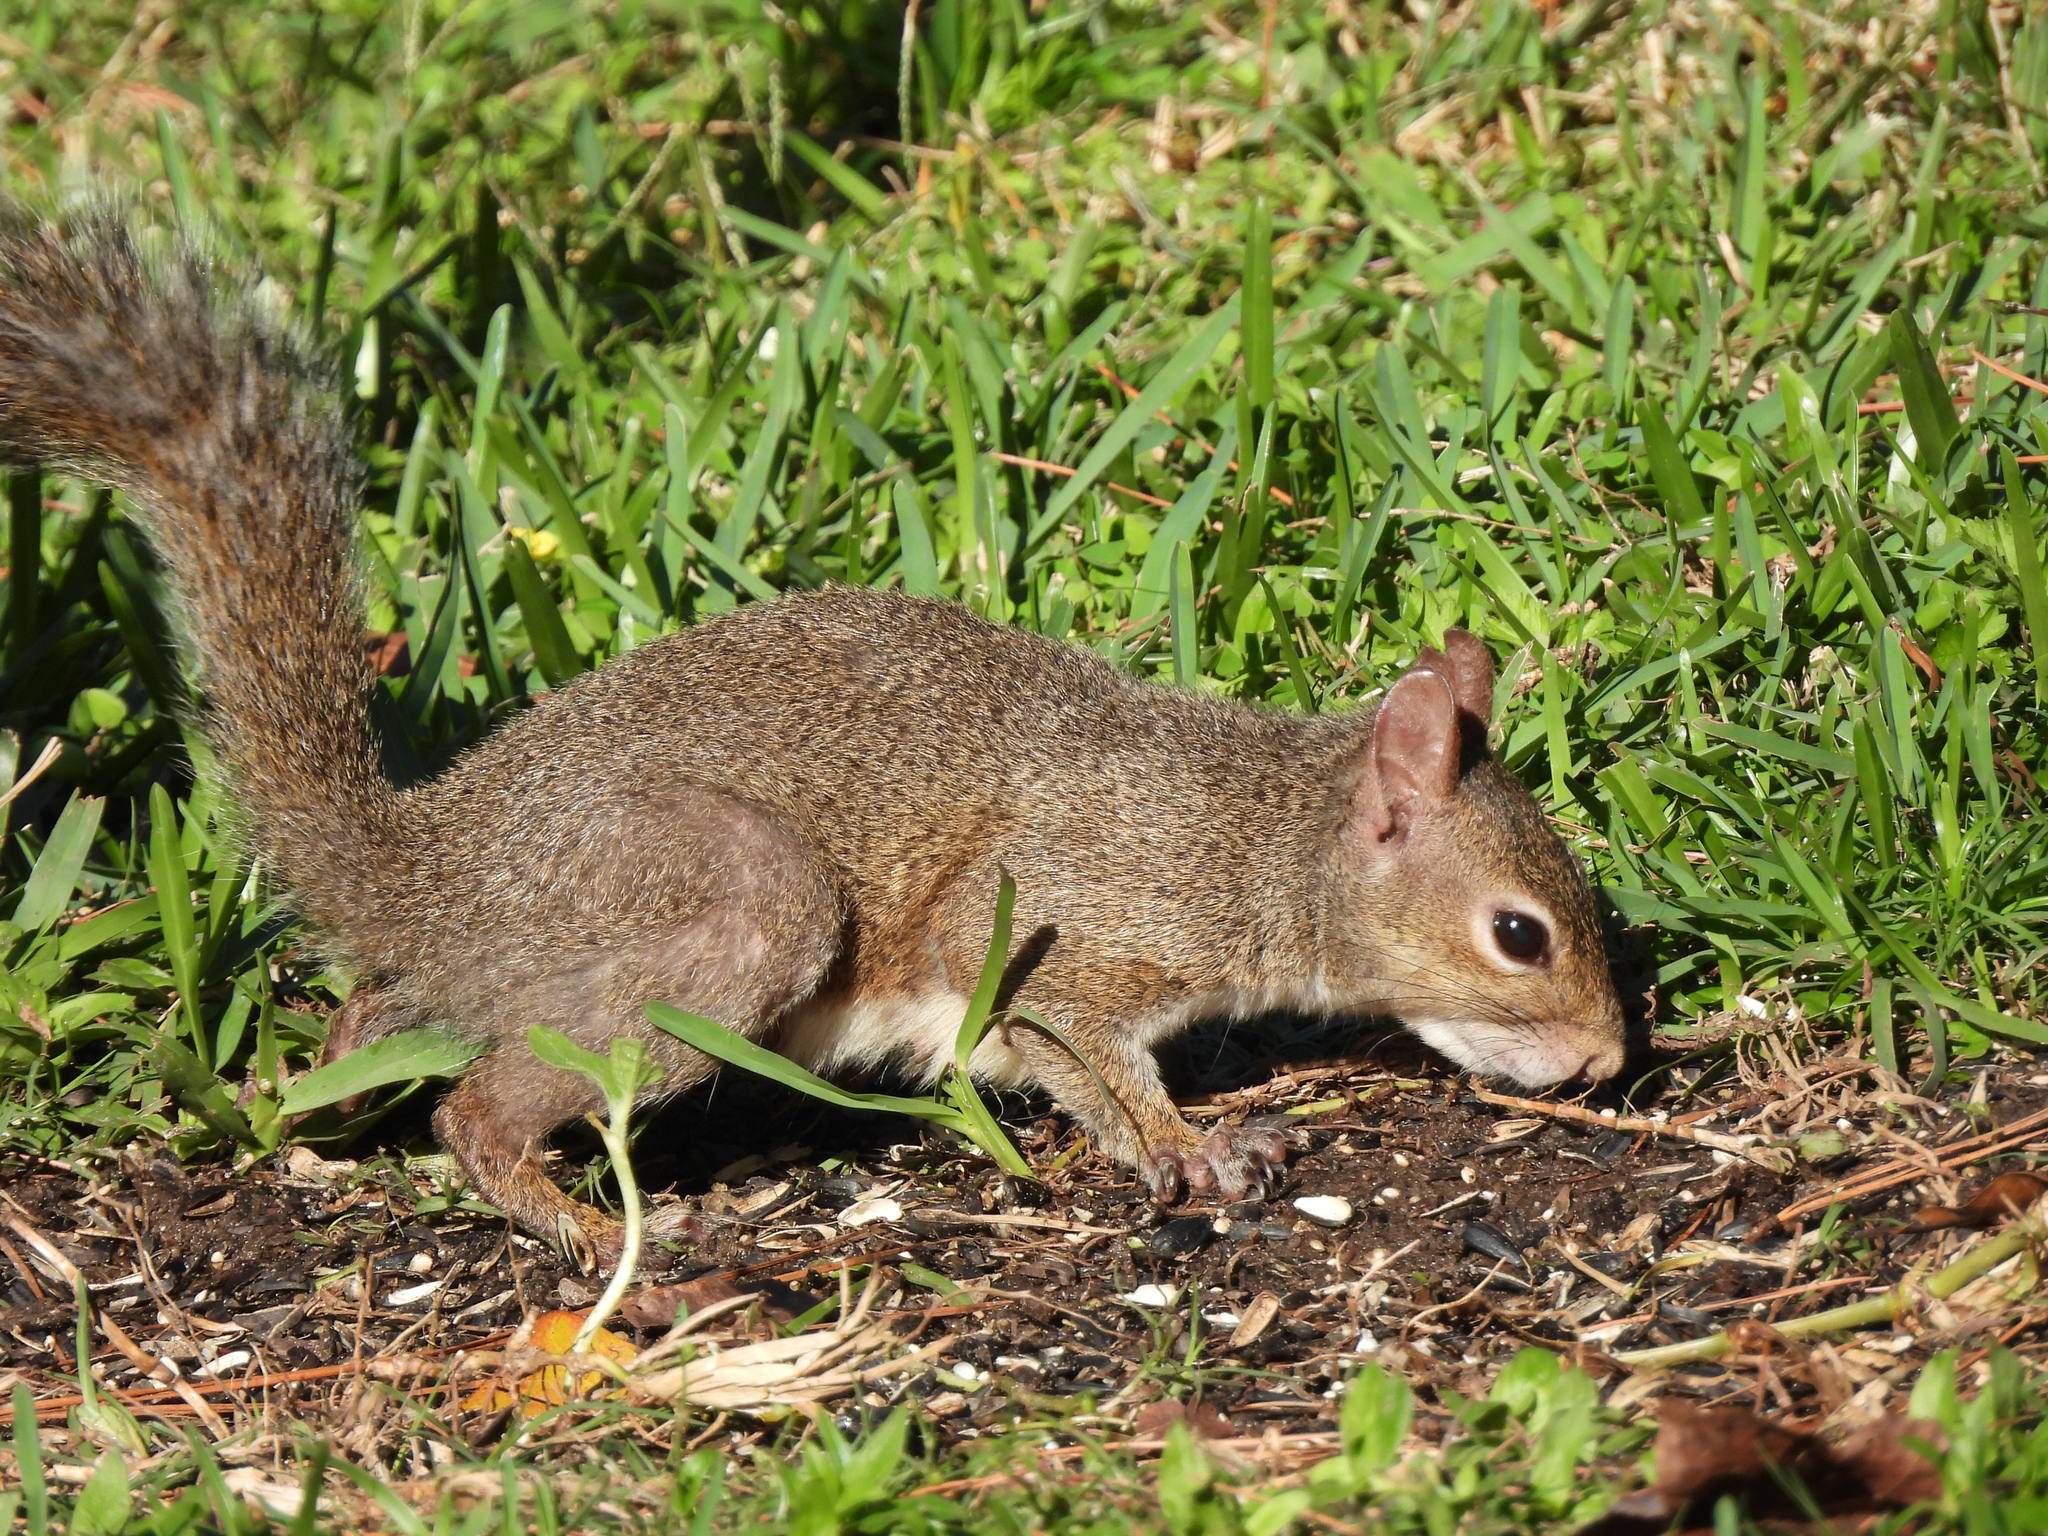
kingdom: Animalia
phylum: Chordata
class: Mammalia
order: Rodentia
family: Sciuridae
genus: Sciurus
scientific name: Sciurus carolinensis
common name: Eastern gray squirrel
